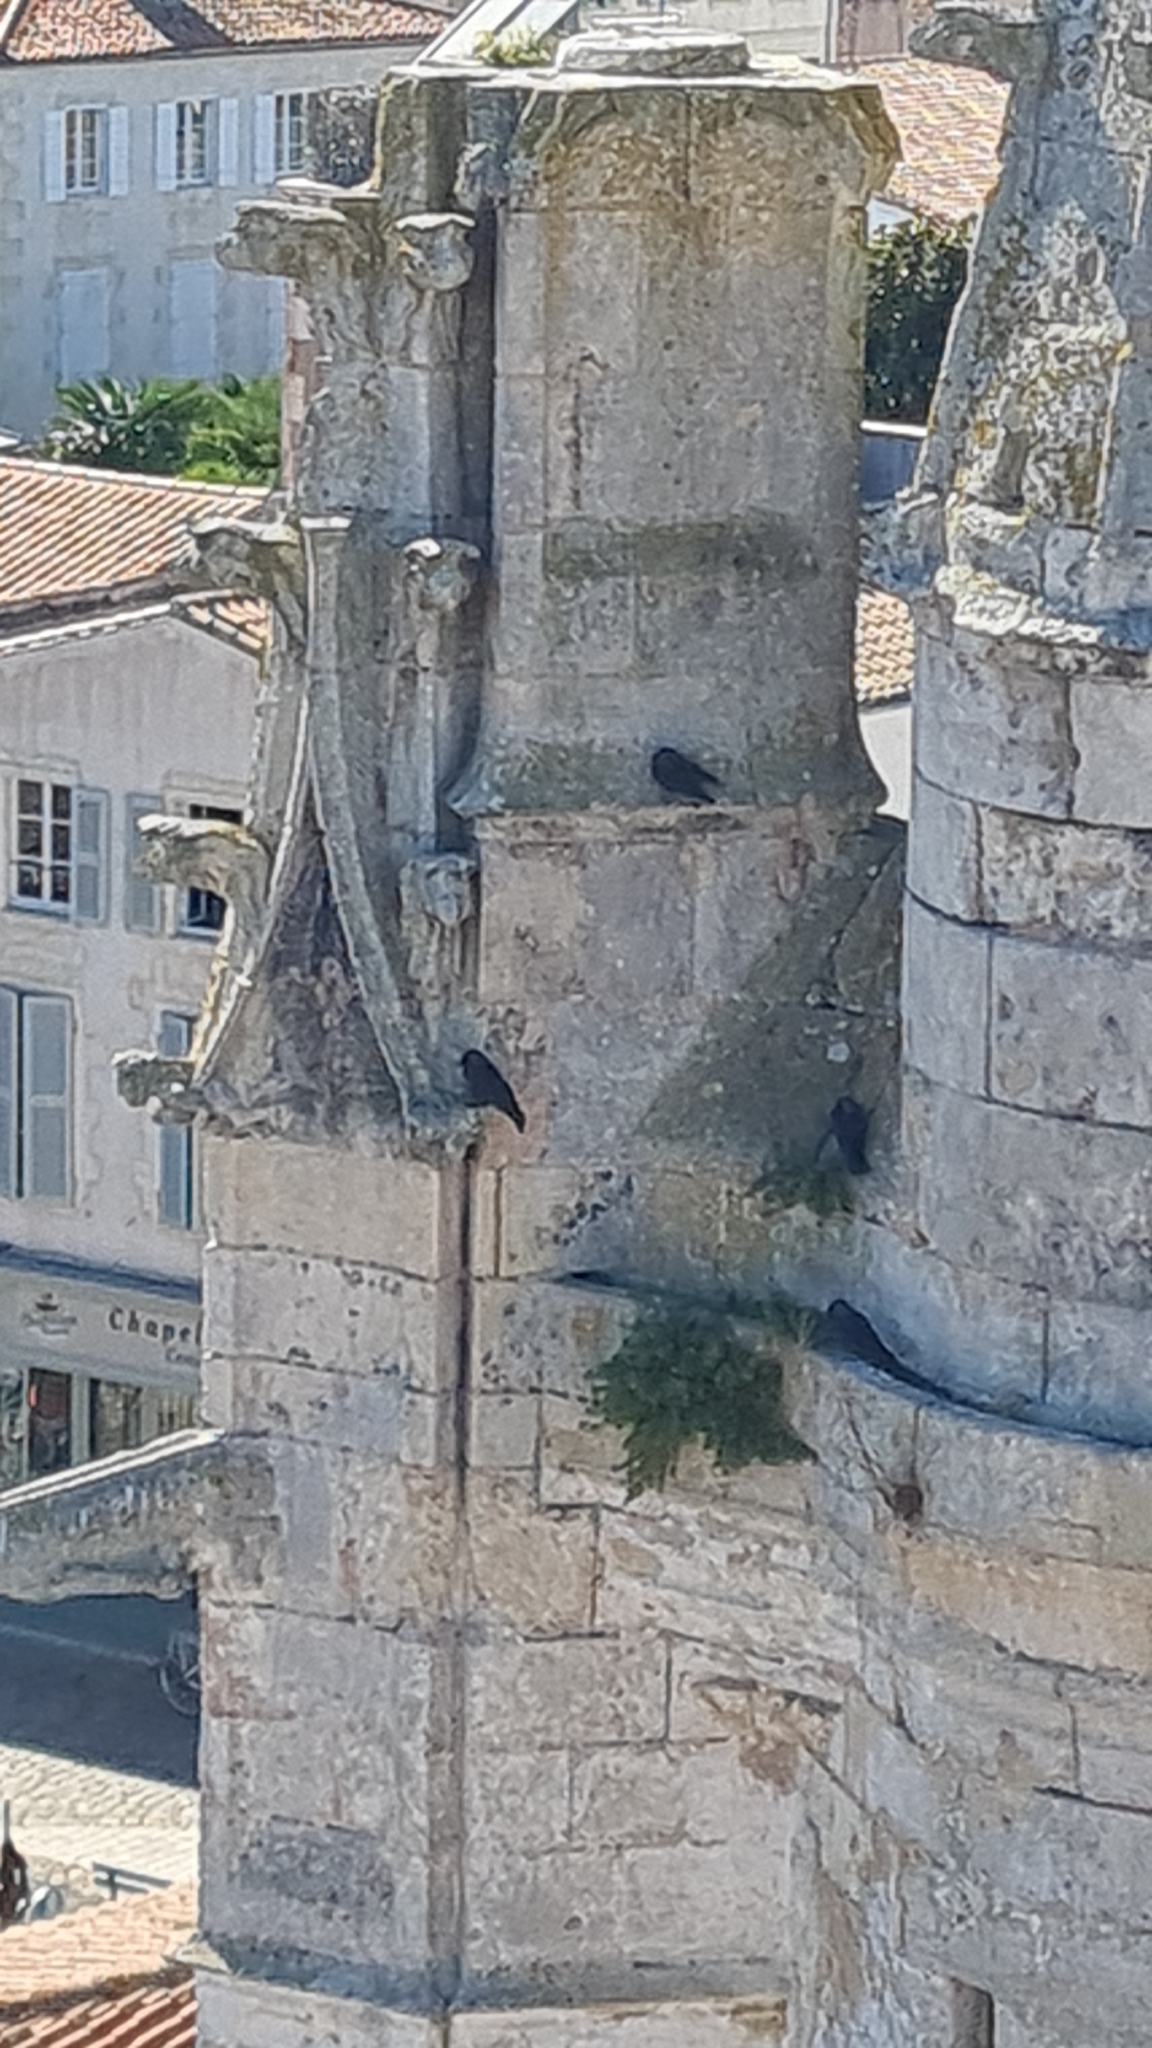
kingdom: Animalia
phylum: Chordata
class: Aves
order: Passeriformes
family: Corvidae
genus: Coloeus
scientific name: Coloeus monedula
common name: Western jackdaw
